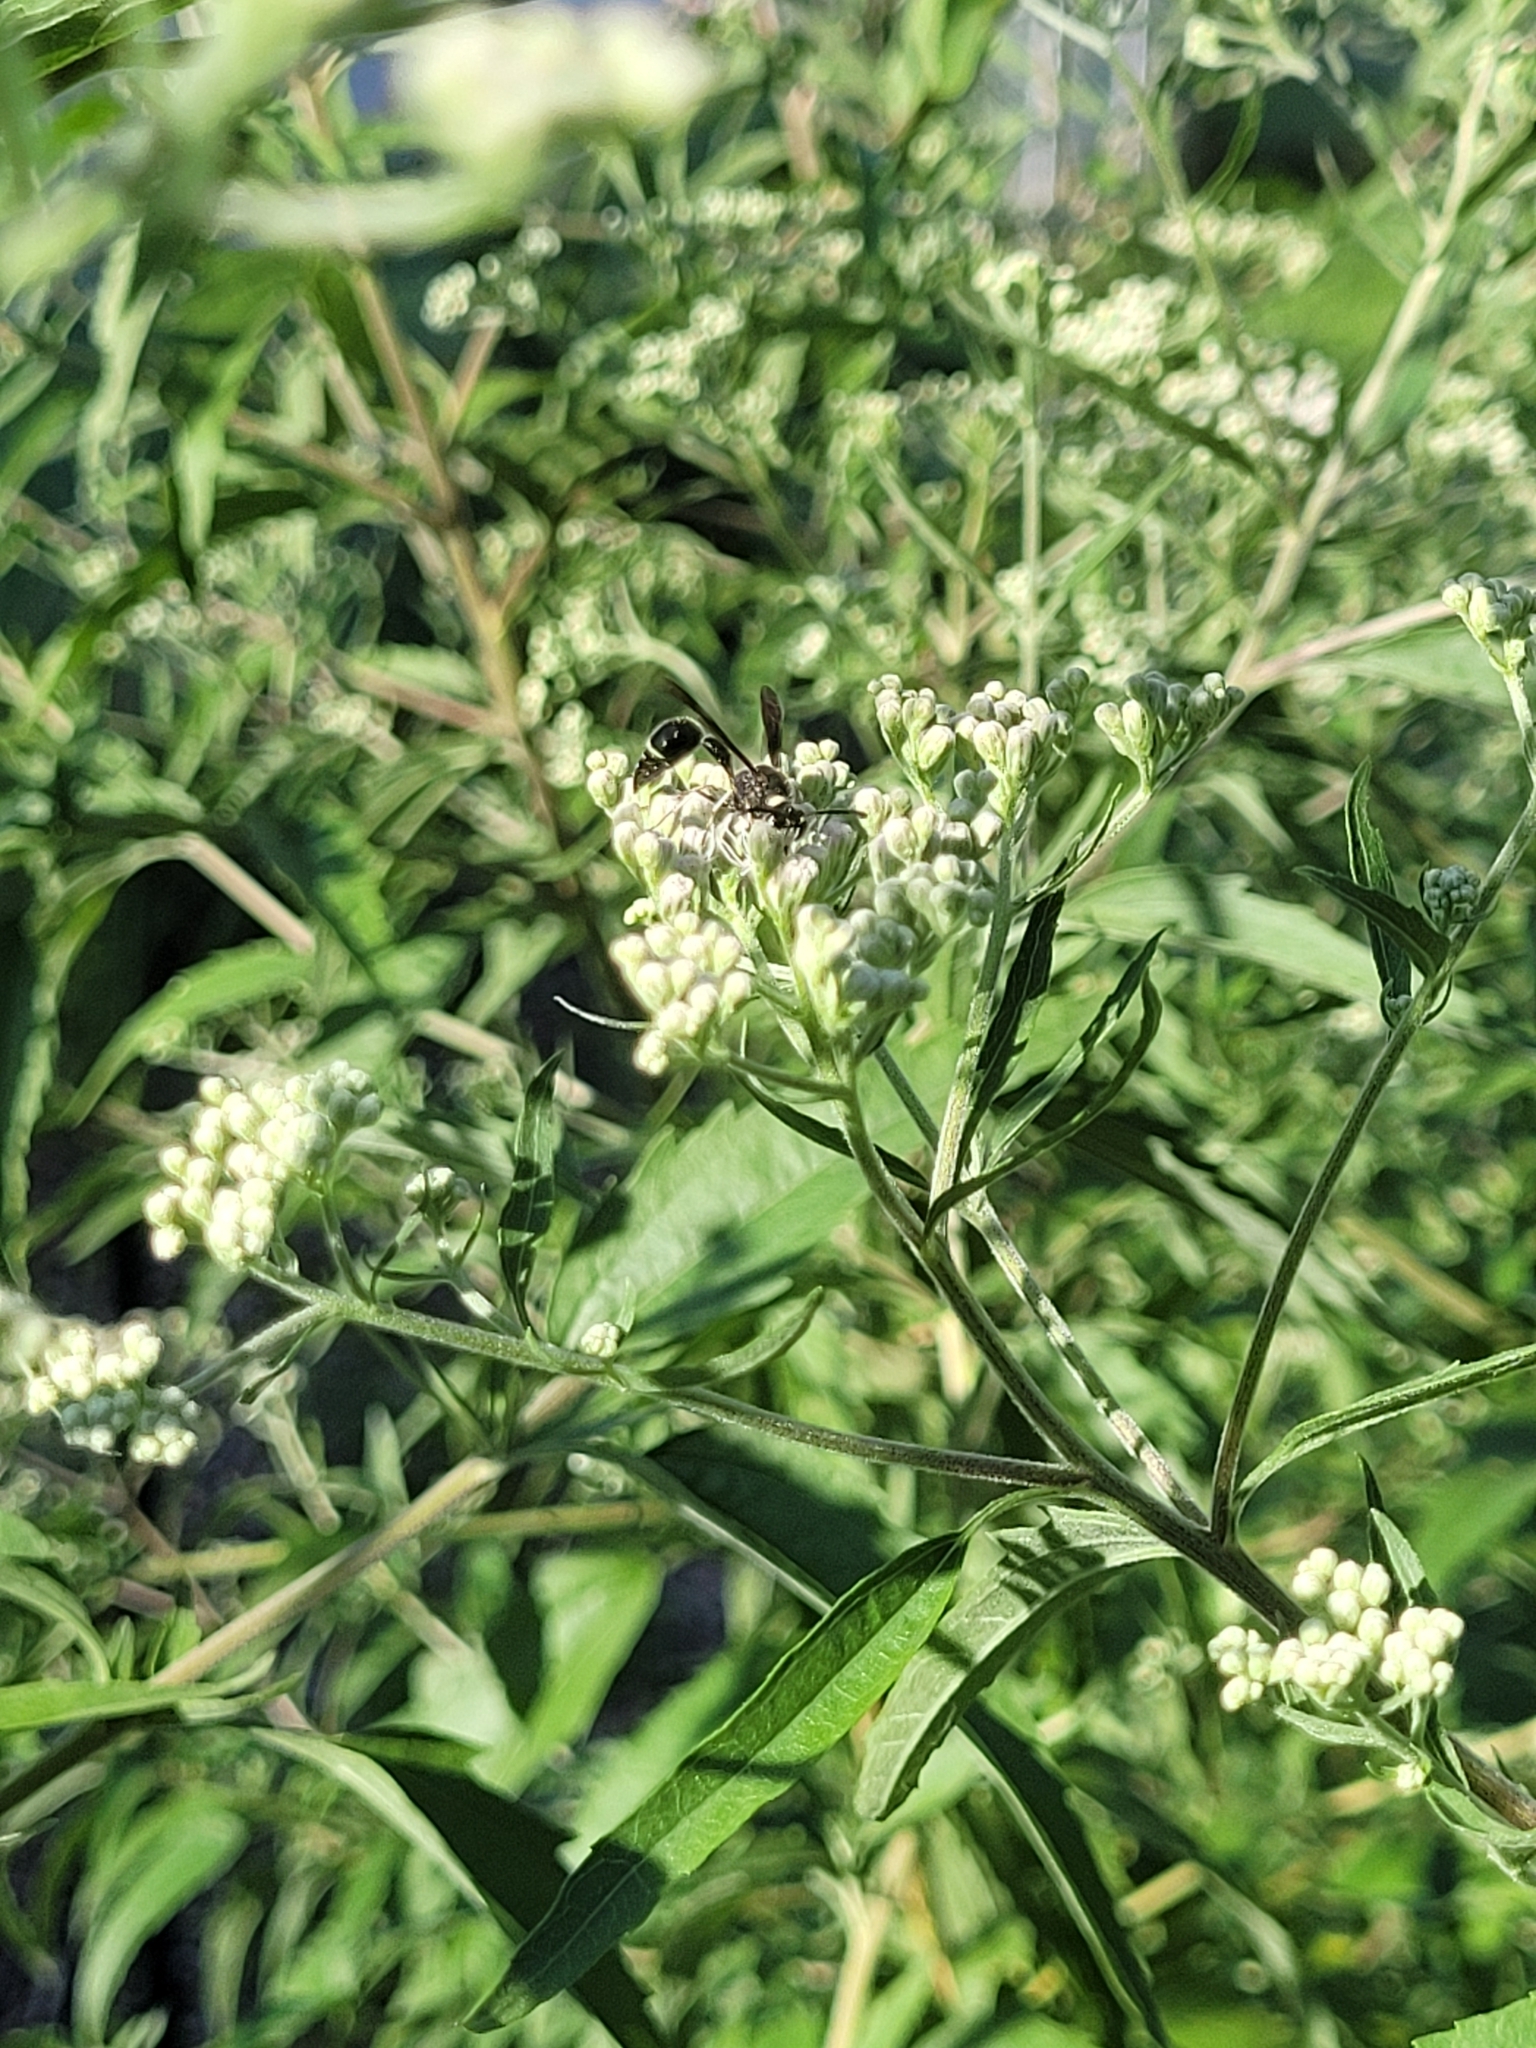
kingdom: Animalia
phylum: Arthropoda
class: Insecta
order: Hymenoptera
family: Vespidae
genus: Eumenes
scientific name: Eumenes fraternus
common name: Fraternal potter wasp
